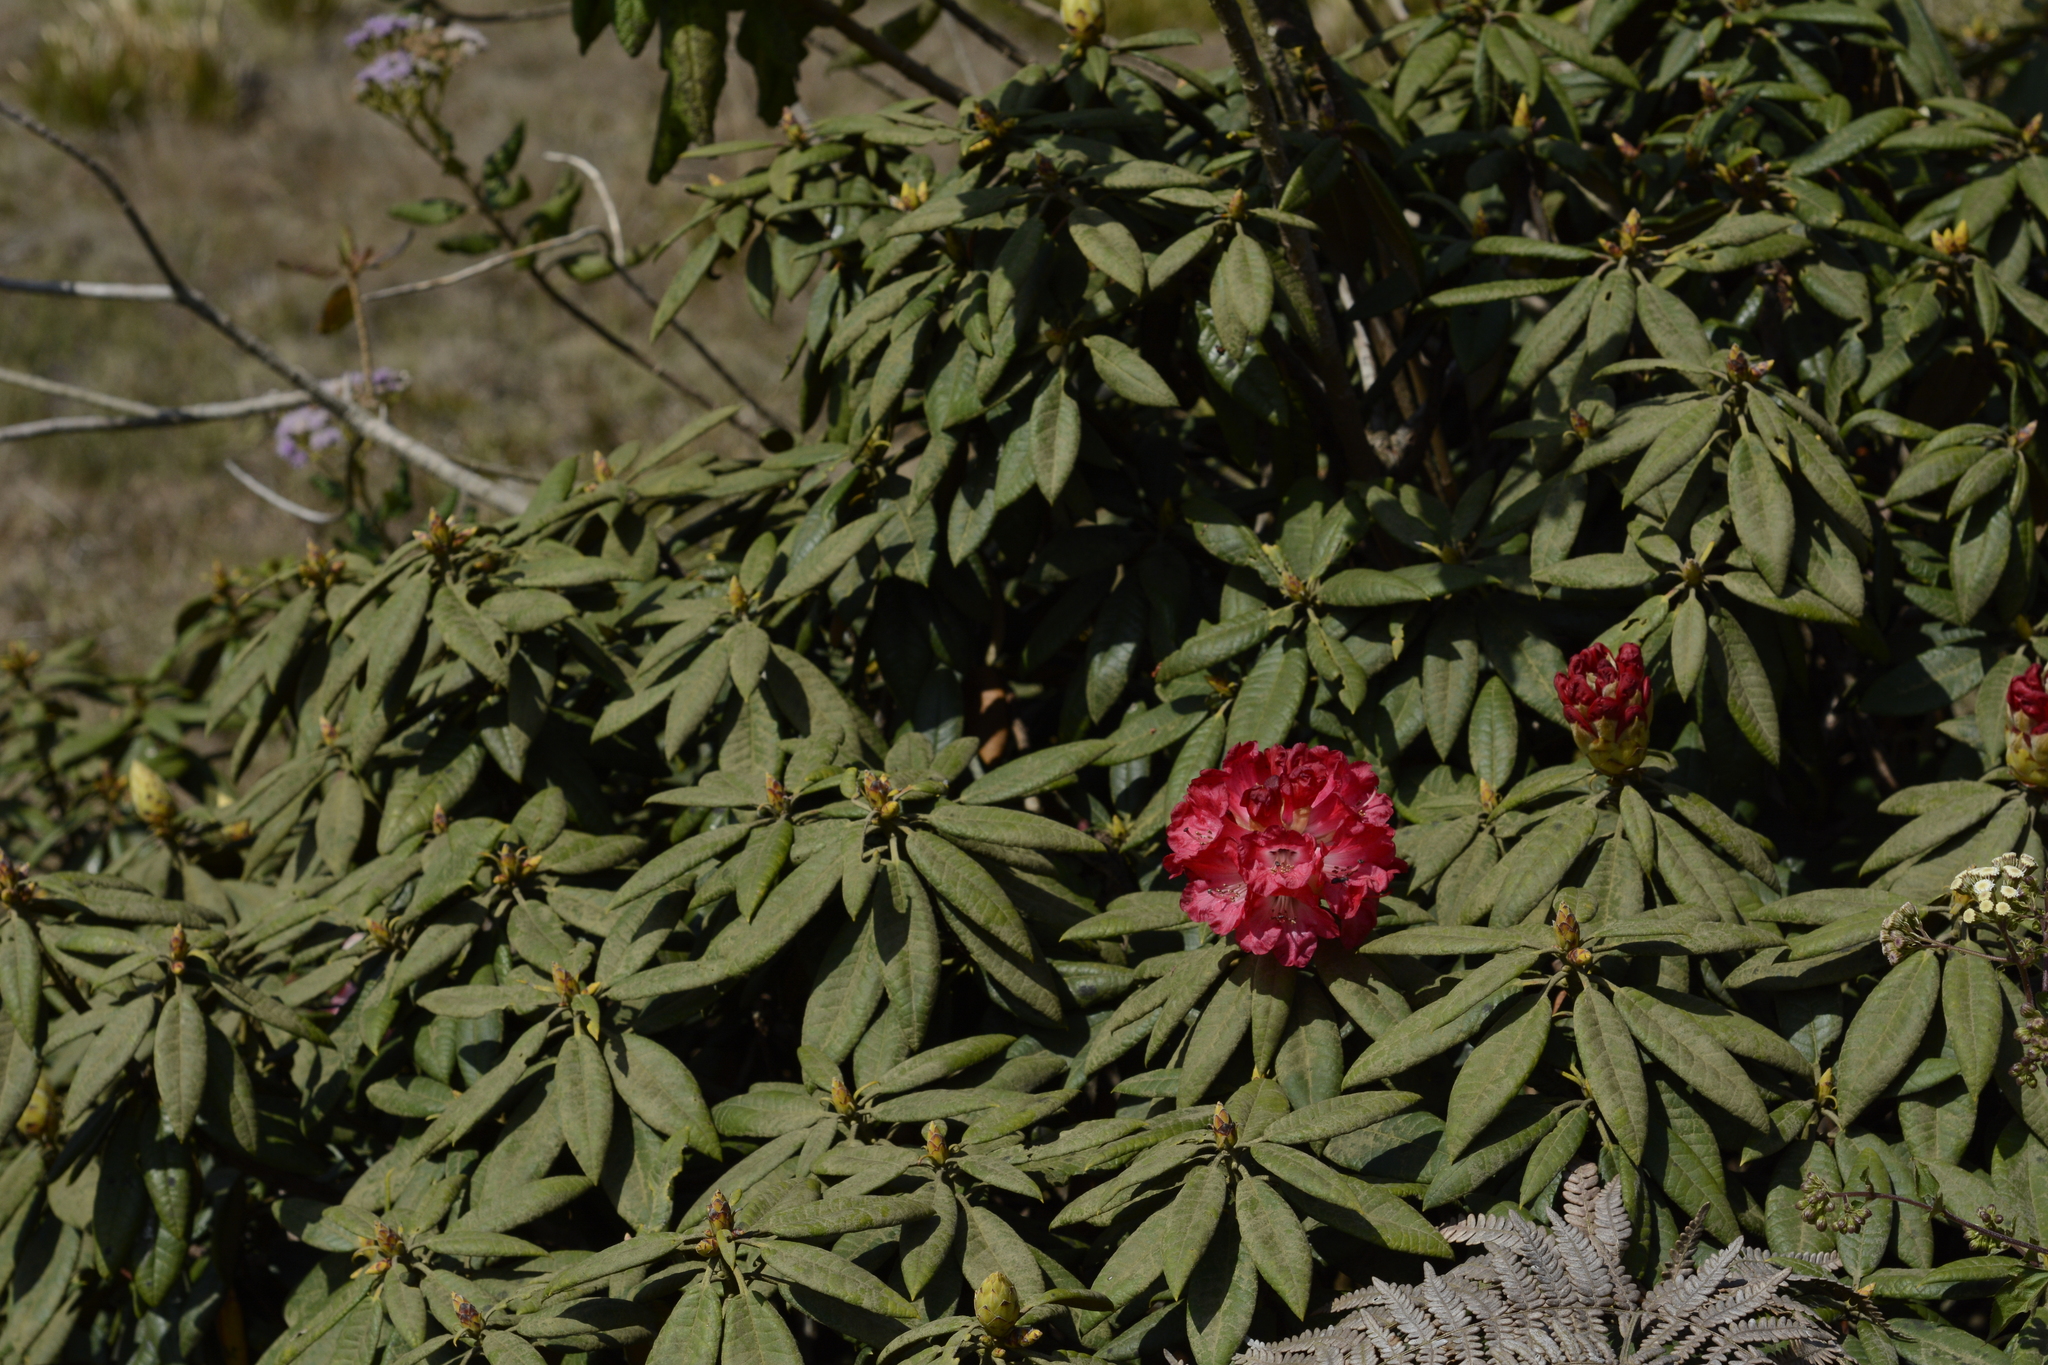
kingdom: Plantae
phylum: Tracheophyta
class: Magnoliopsida
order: Ericales
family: Ericaceae
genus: Rhododendron
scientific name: Rhododendron arboreum
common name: Tree rhododendron
